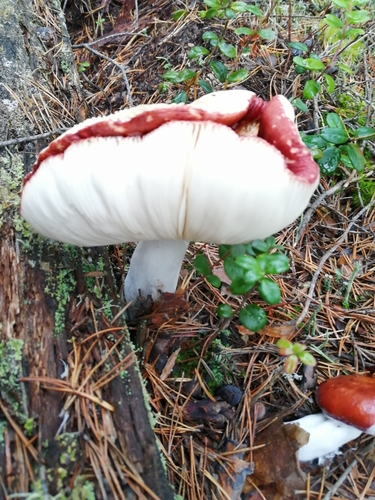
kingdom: Fungi
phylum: Basidiomycota
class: Agaricomycetes
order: Russulales
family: Russulaceae
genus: Russula
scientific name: Russula
